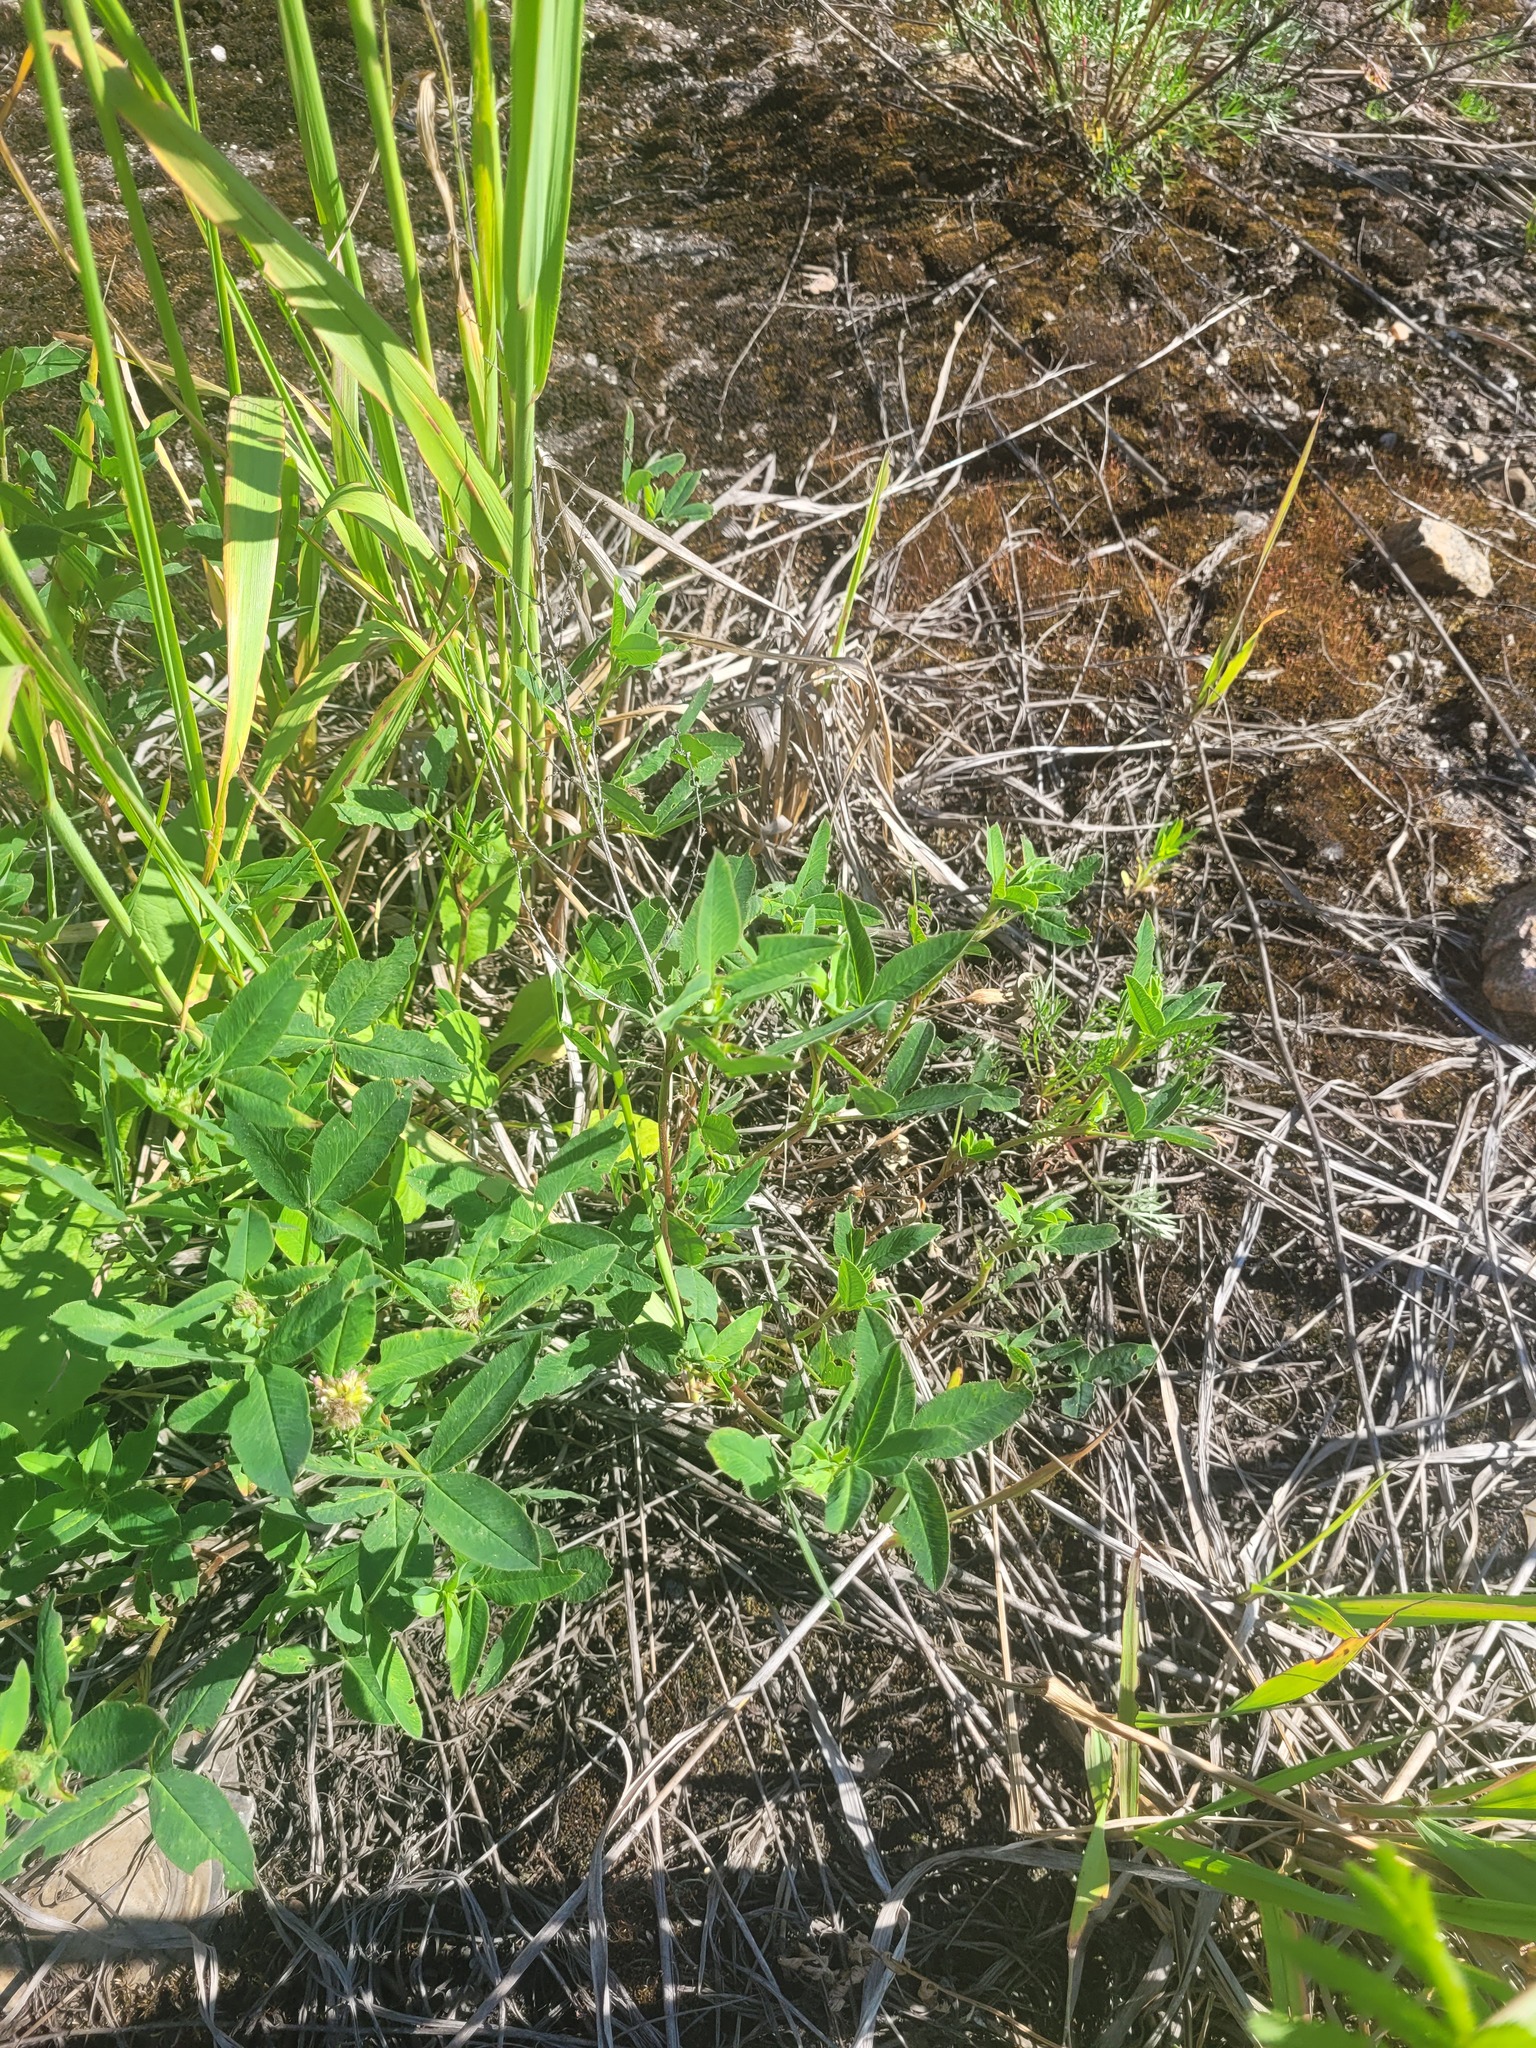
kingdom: Plantae
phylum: Tracheophyta
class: Magnoliopsida
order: Fabales
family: Fabaceae
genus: Trifolium
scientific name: Trifolium medium
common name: Zigzag clover
